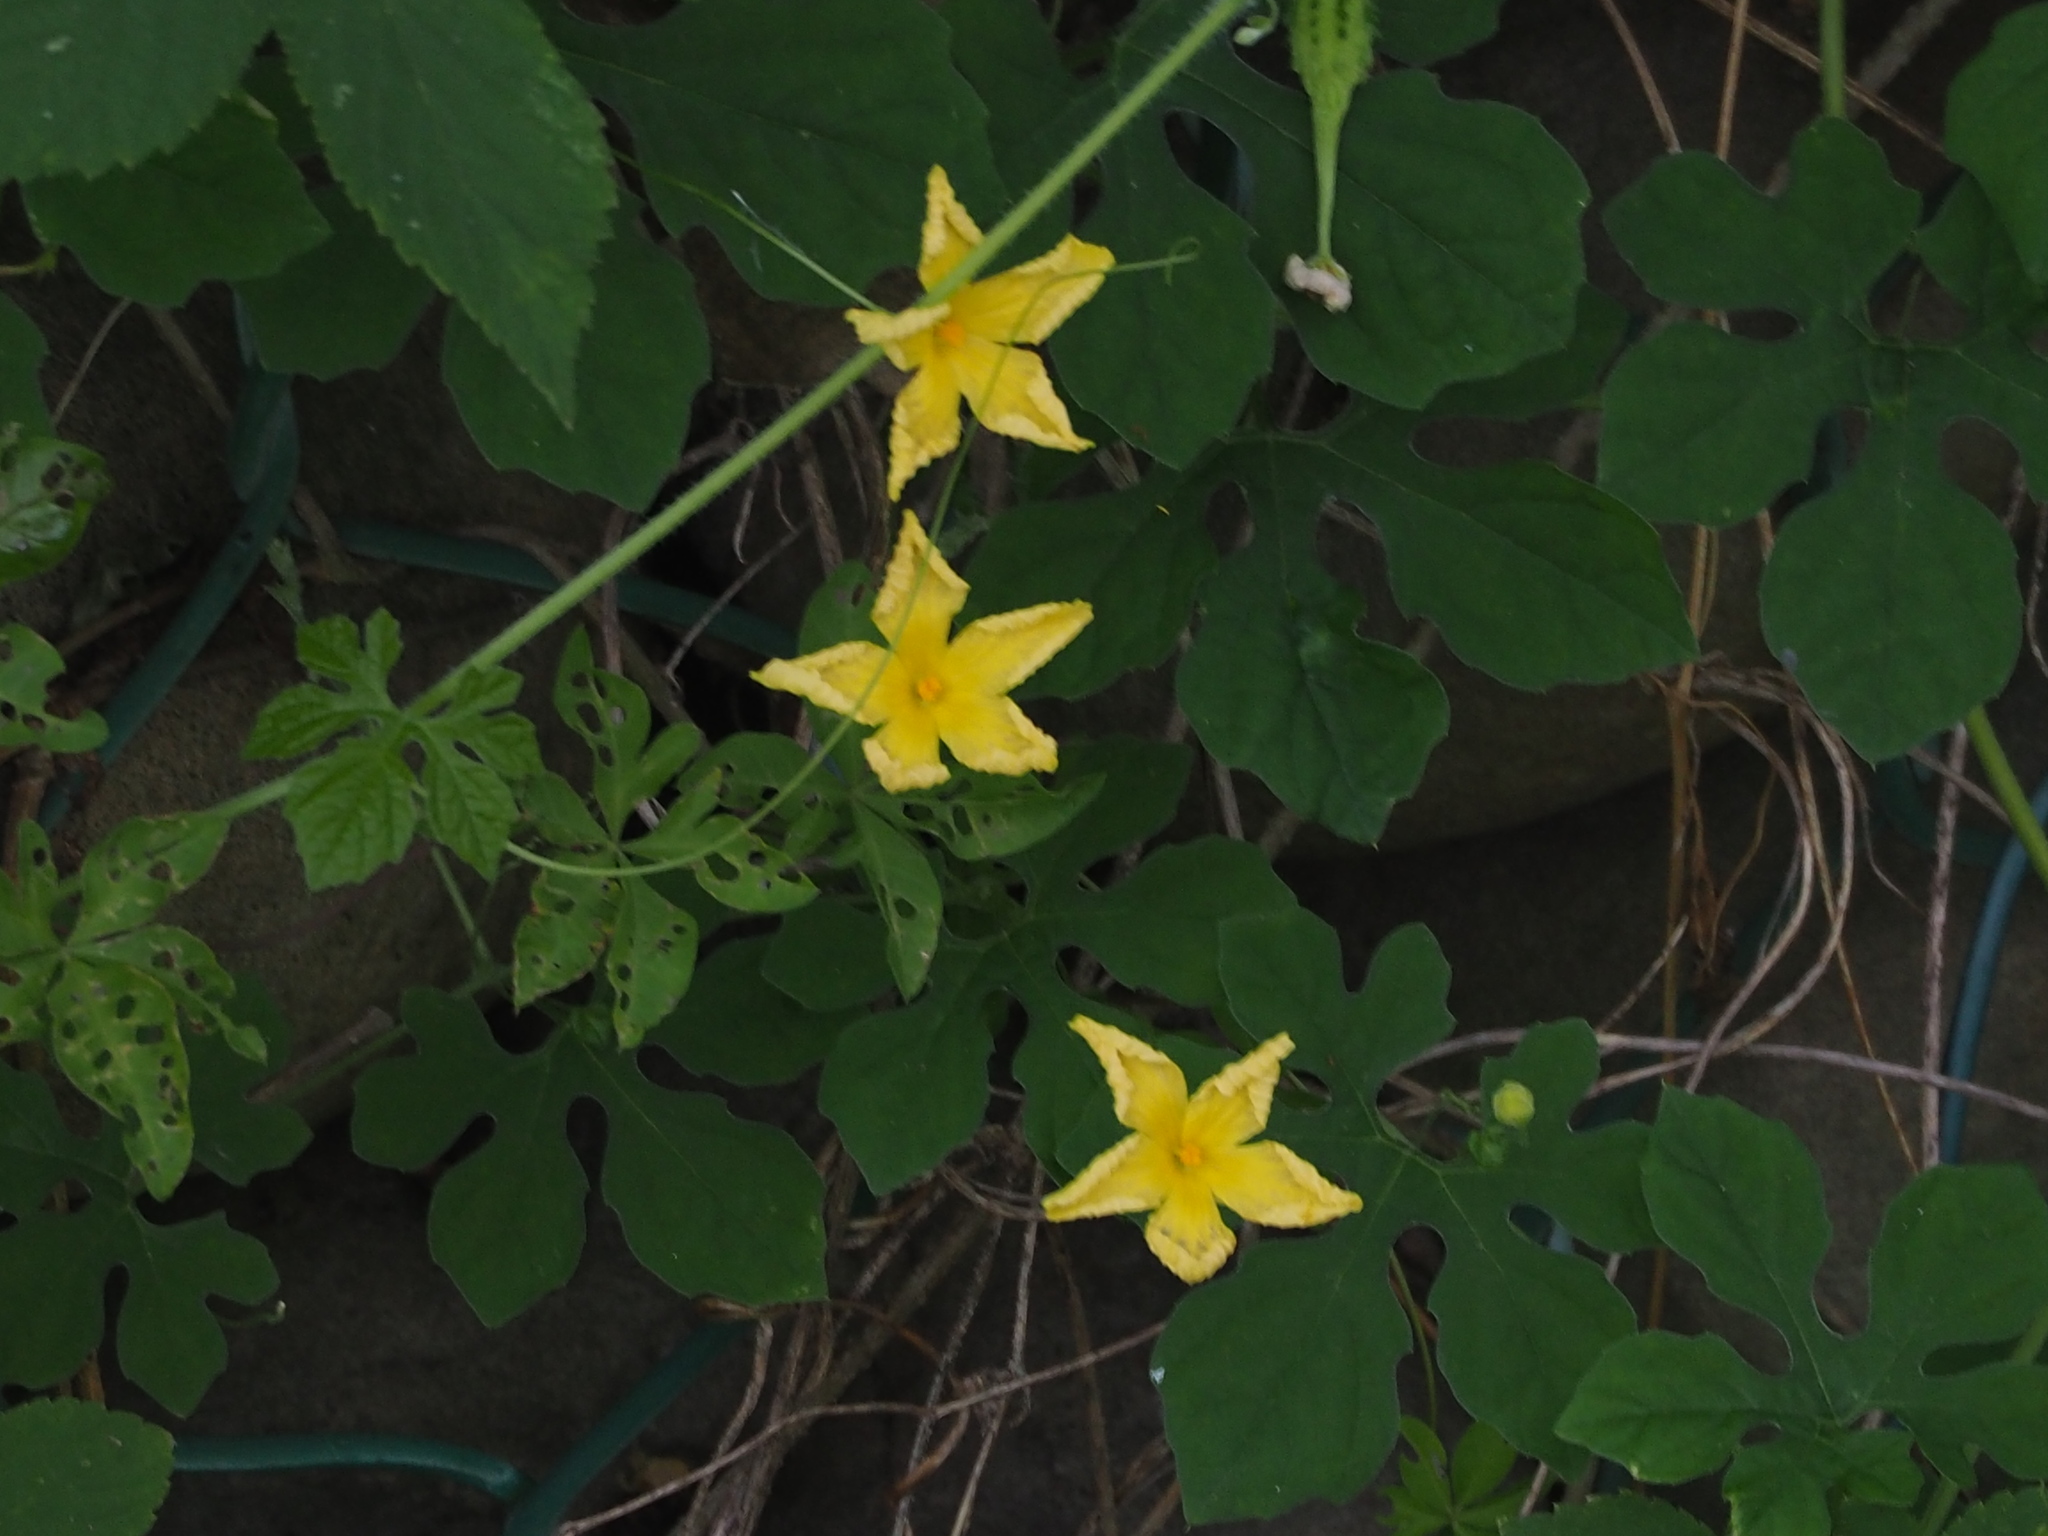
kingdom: Plantae
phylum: Tracheophyta
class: Magnoliopsida
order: Cucurbitales
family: Cucurbitaceae
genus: Momordica
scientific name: Momordica charantia
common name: Balsampear
